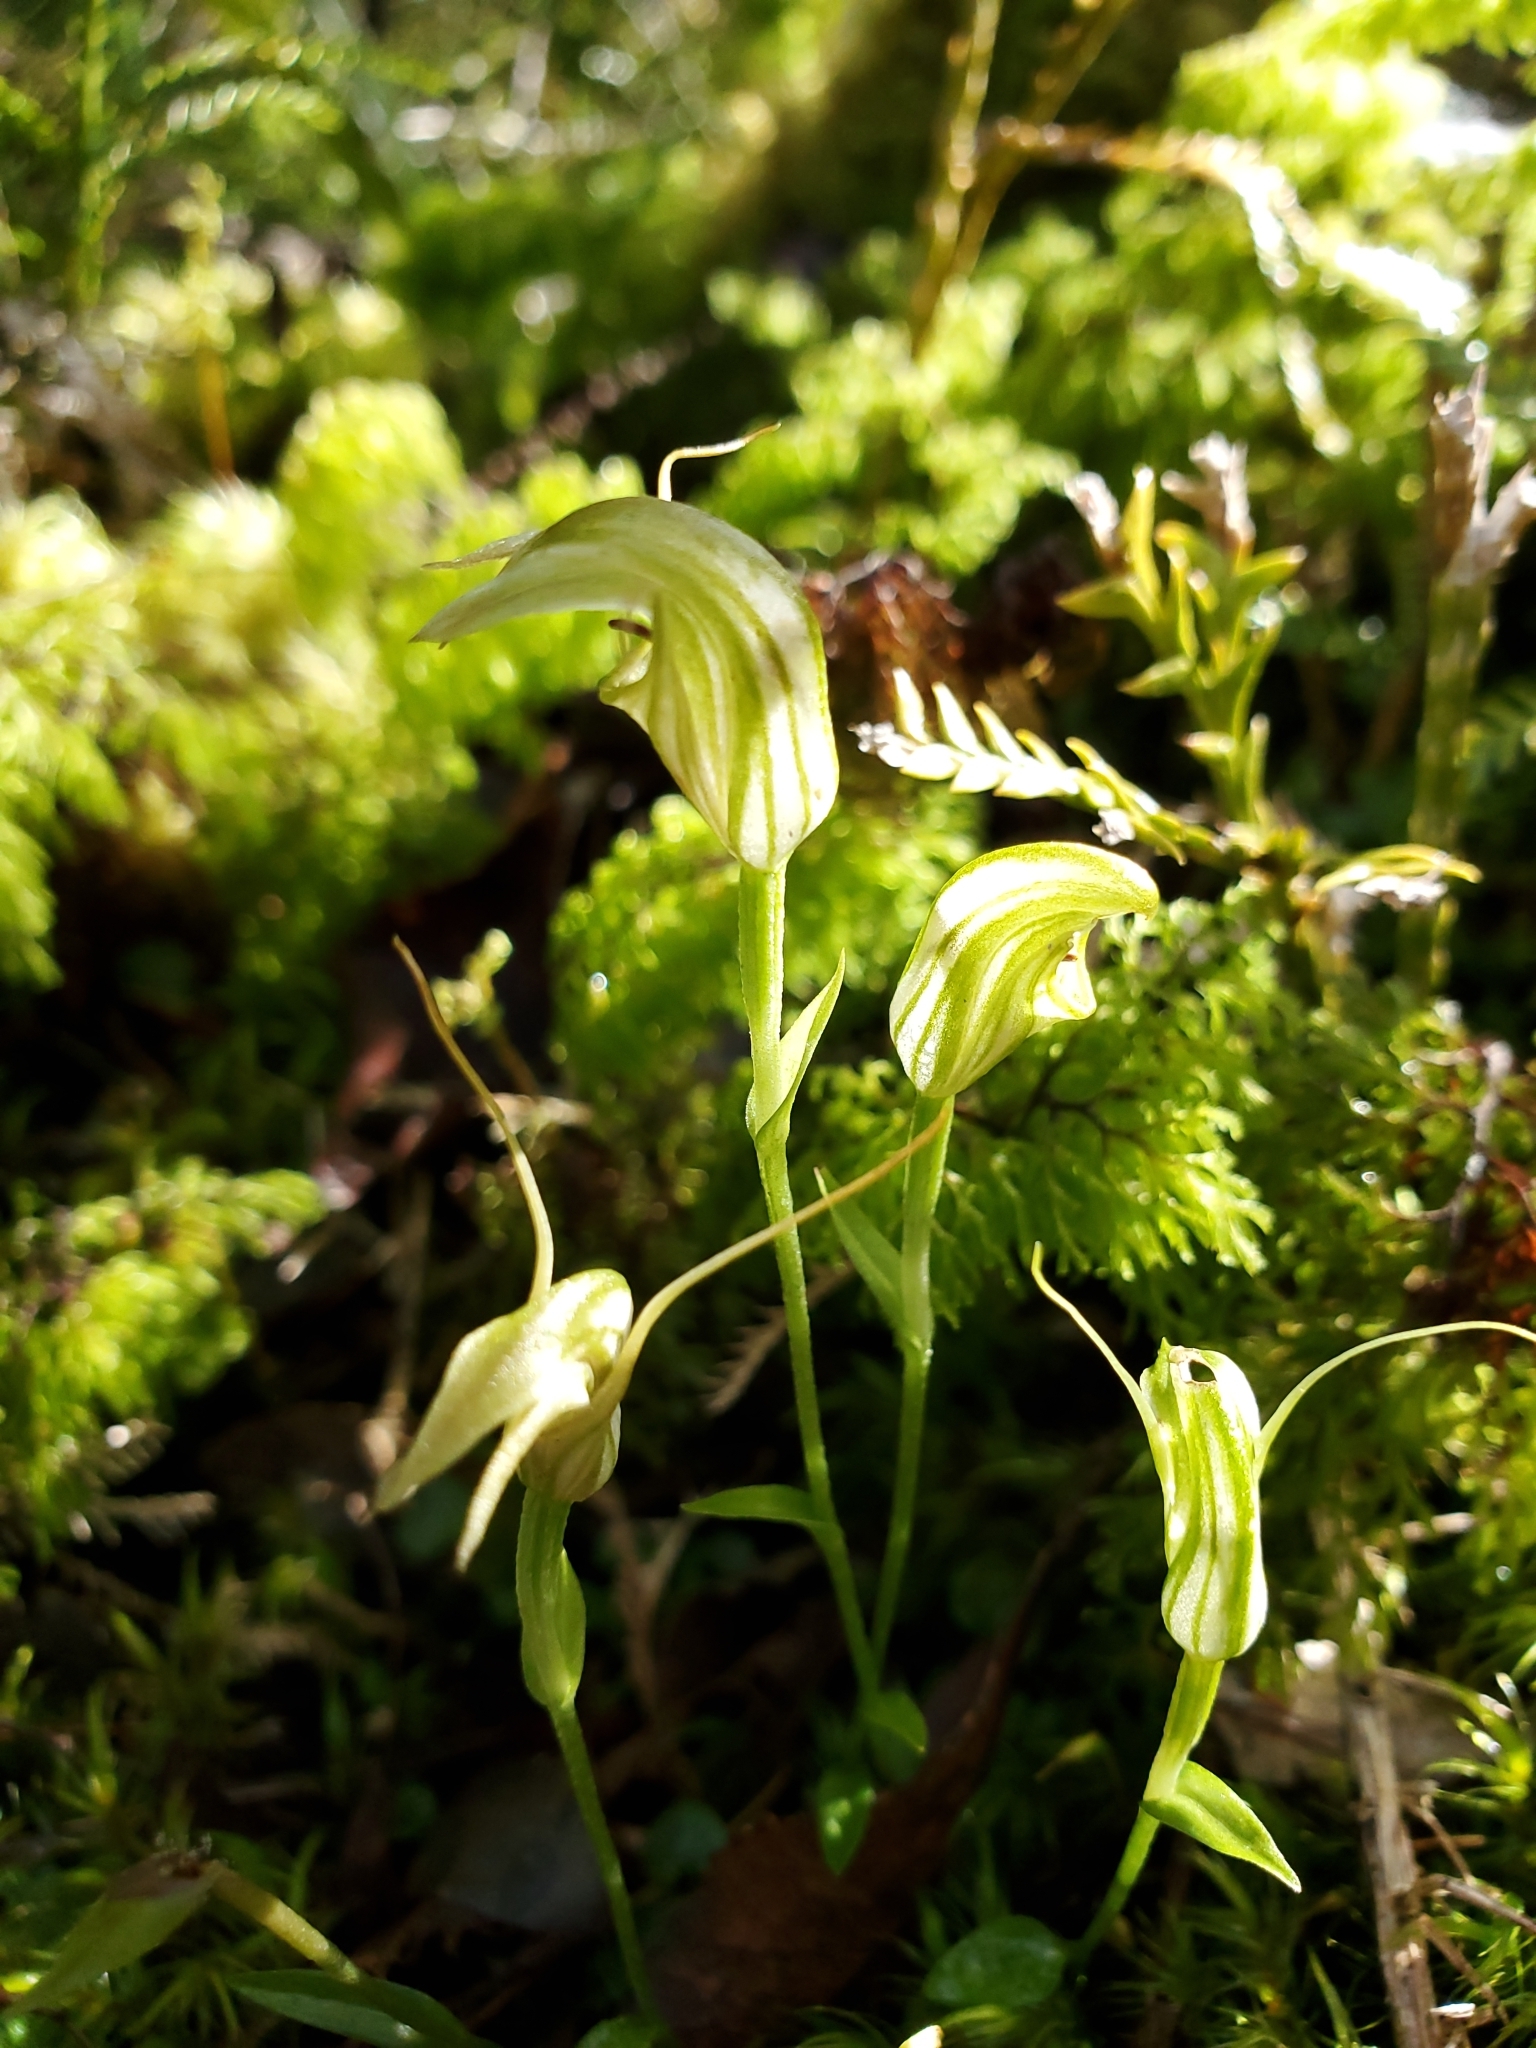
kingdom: Plantae
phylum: Tracheophyta
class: Liliopsida
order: Asparagales
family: Orchidaceae
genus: Pterostylis
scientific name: Pterostylis trullifolia
